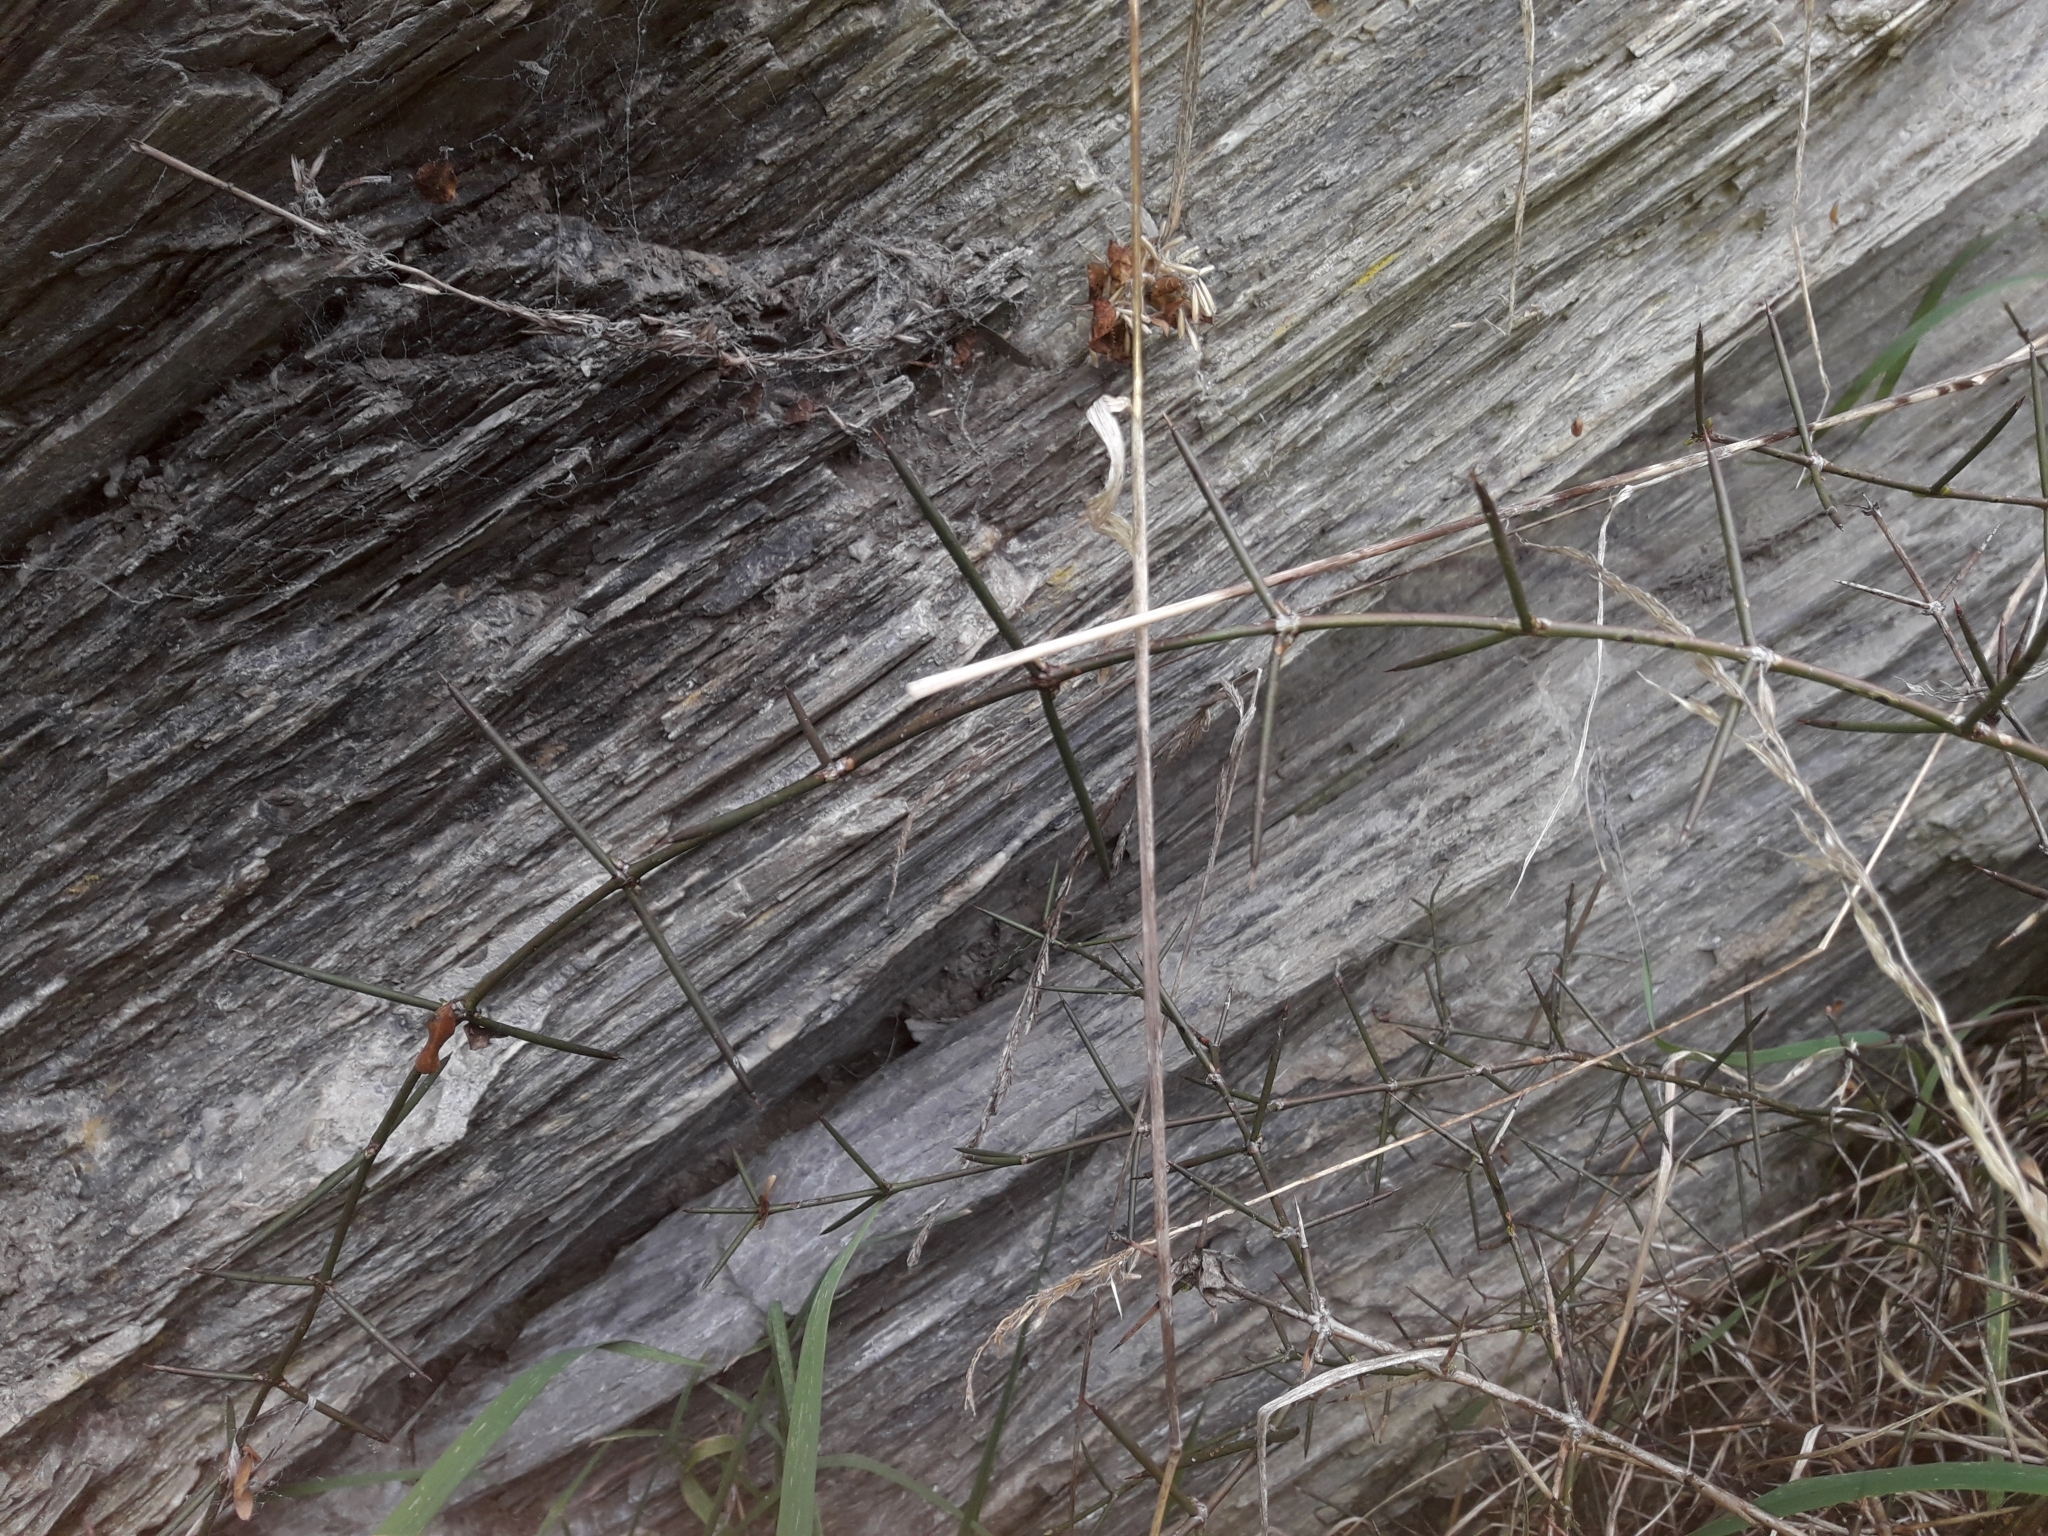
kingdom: Plantae
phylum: Tracheophyta
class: Magnoliopsida
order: Rosales
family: Rhamnaceae
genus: Discaria
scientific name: Discaria toumatou
